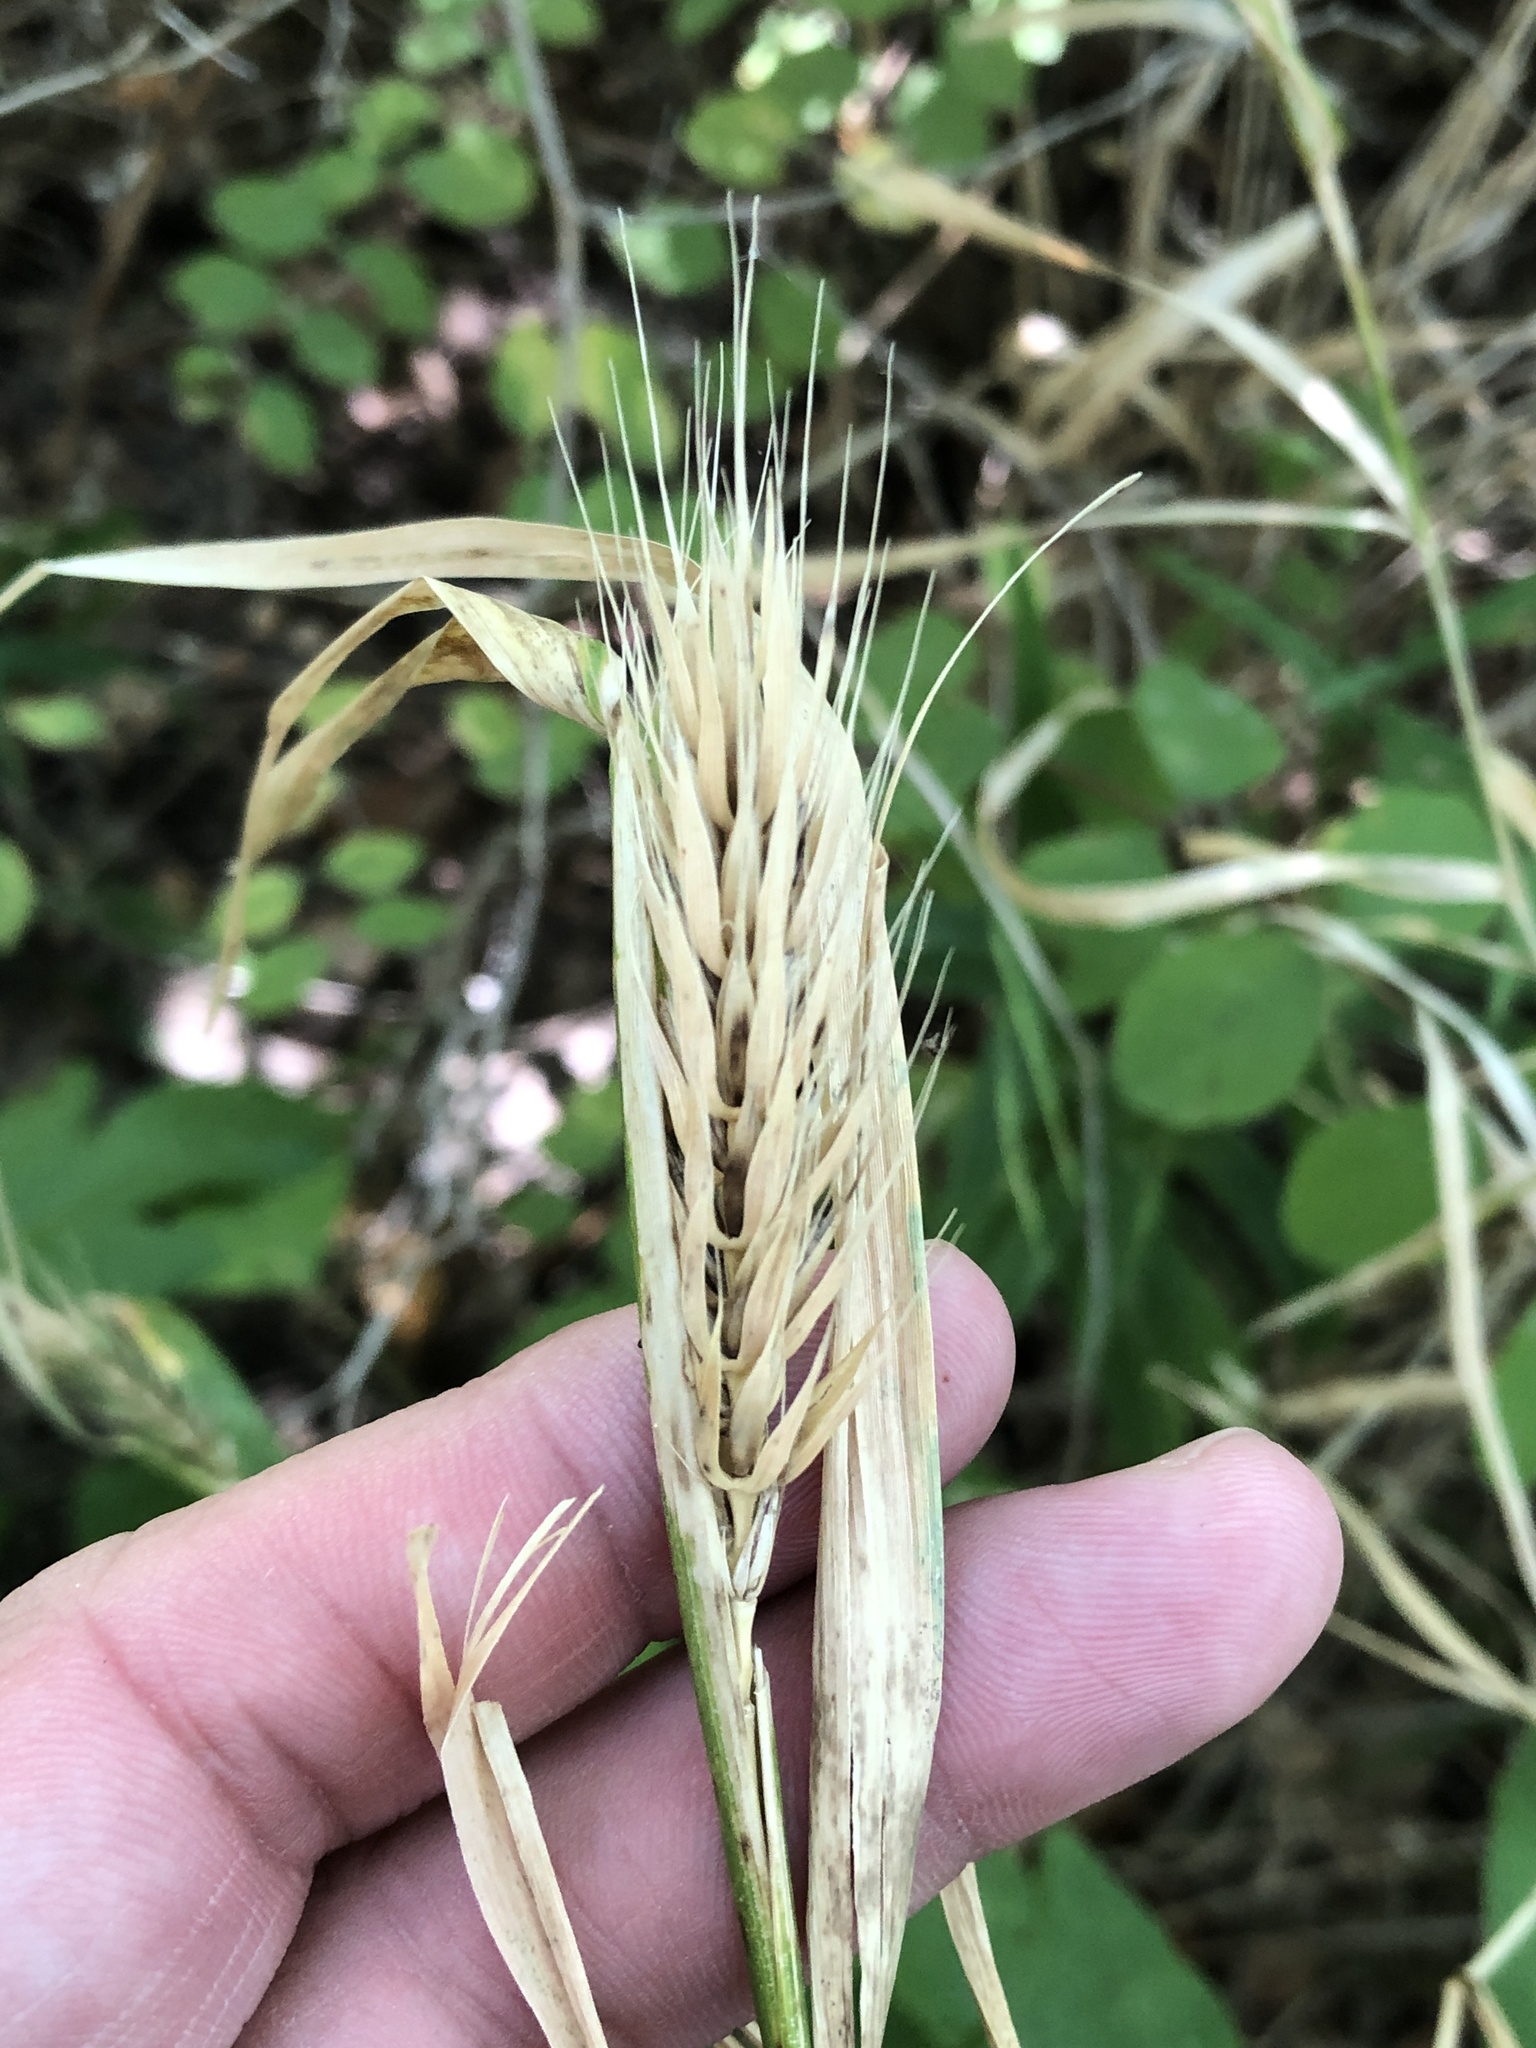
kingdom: Plantae
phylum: Tracheophyta
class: Liliopsida
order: Poales
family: Poaceae
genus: Elymus
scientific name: Elymus virginicus
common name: Common eastern wildrye
